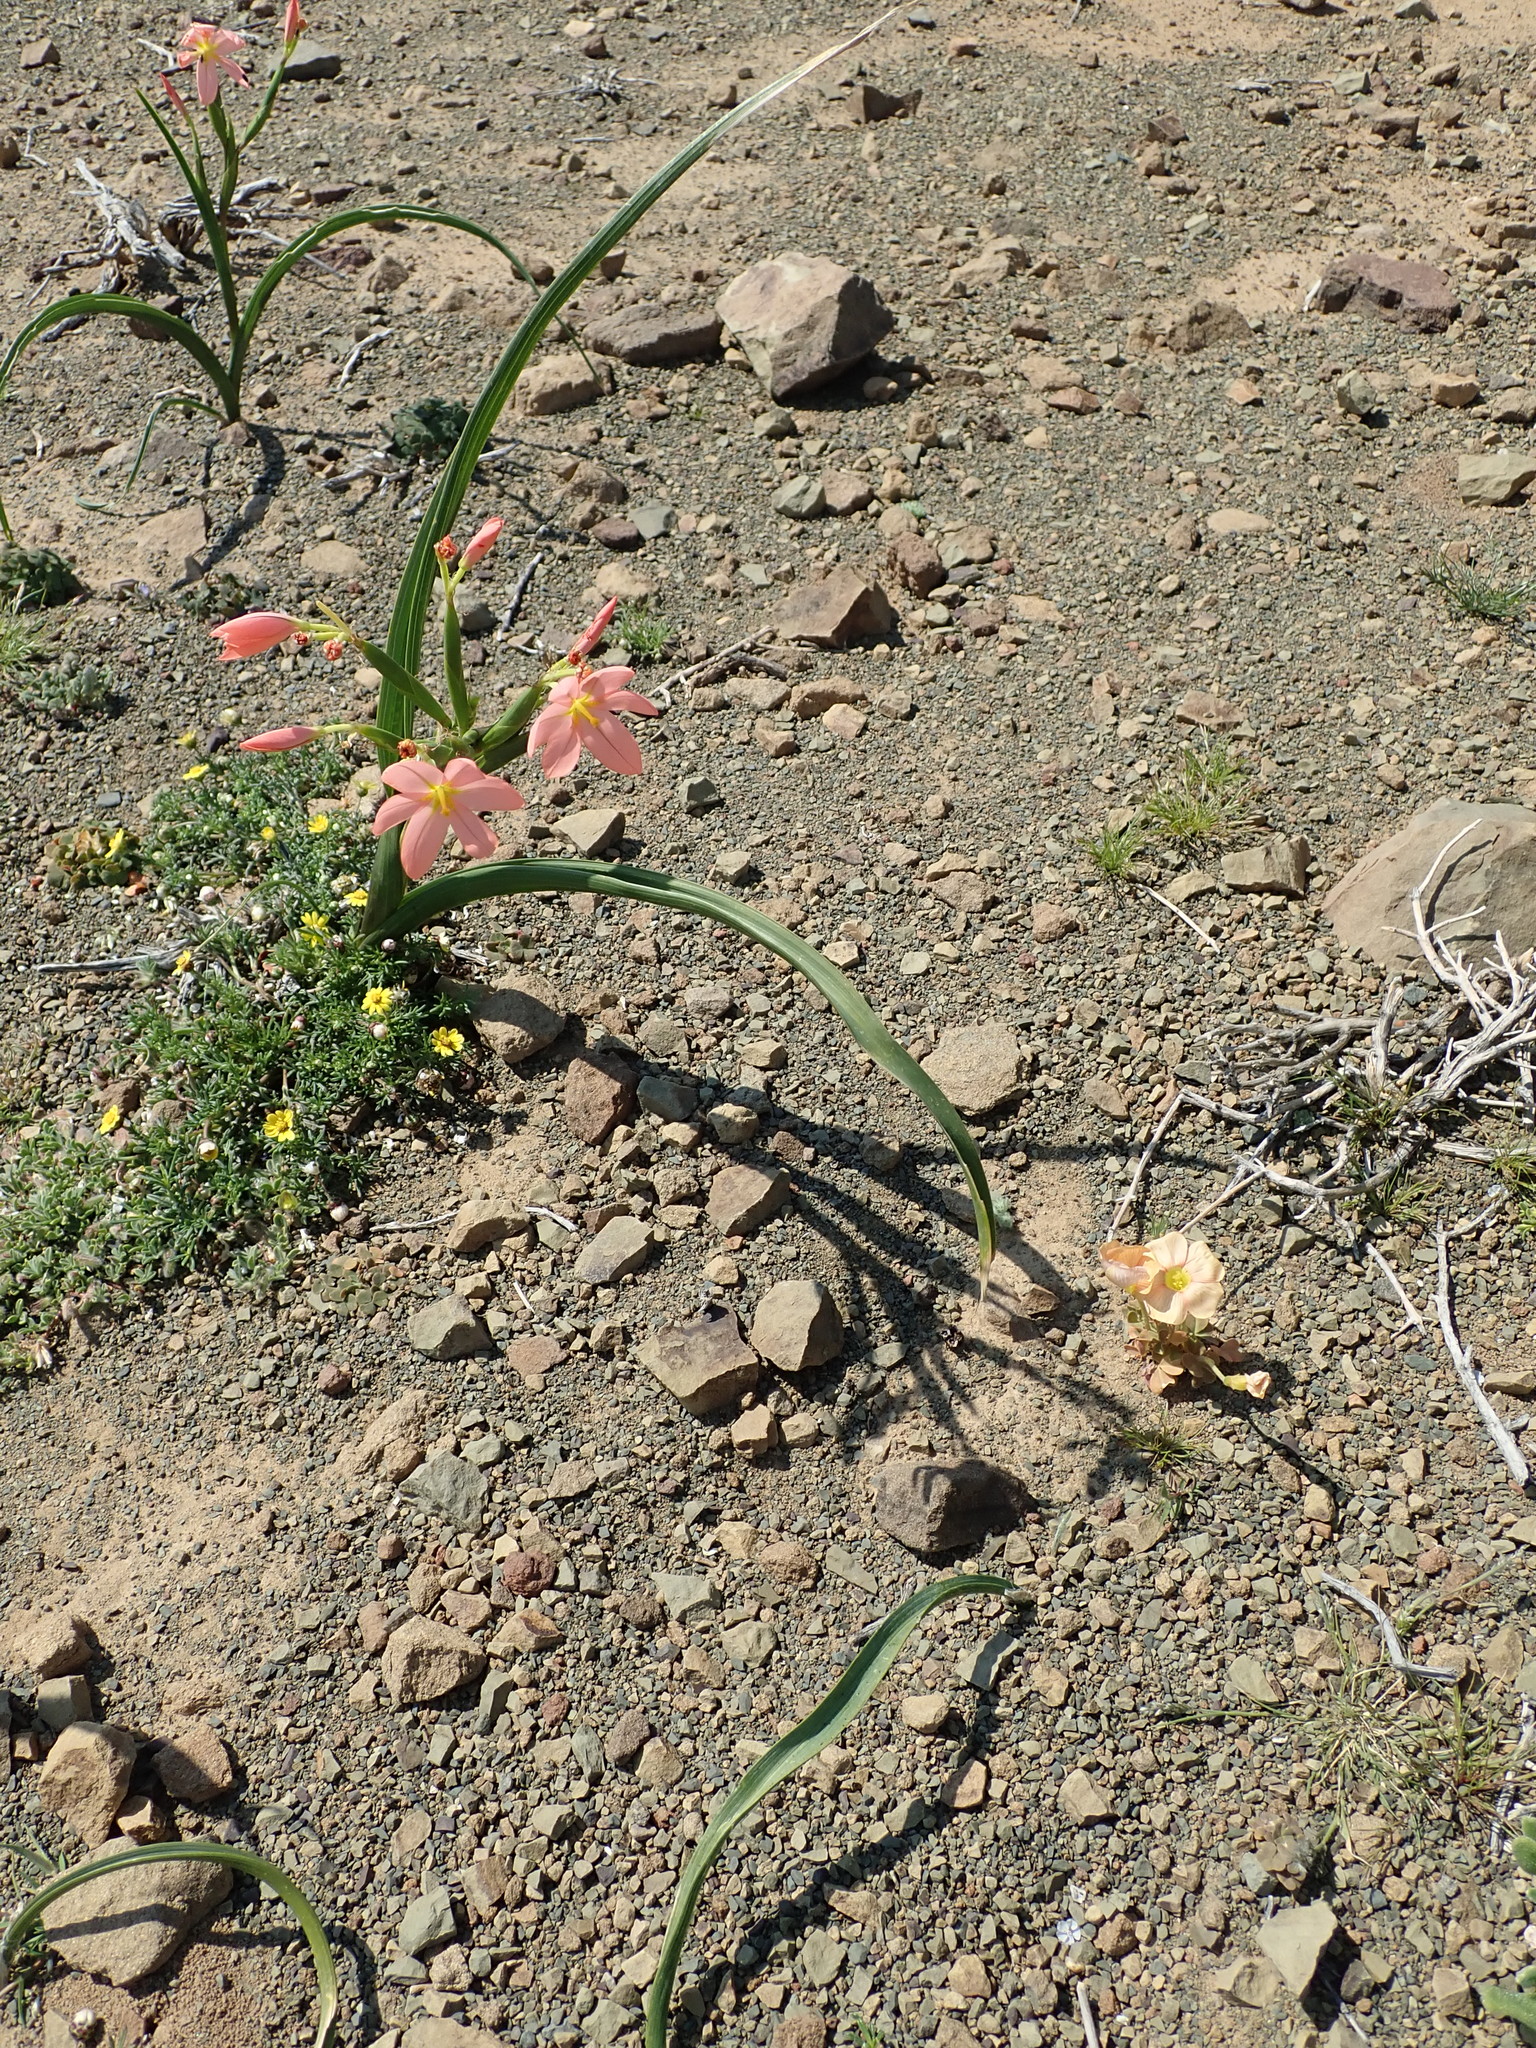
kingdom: Plantae
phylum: Tracheophyta
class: Liliopsida
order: Asparagales
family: Iridaceae
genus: Moraea
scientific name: Moraea miniata
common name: Two-leaf cape-tulip
